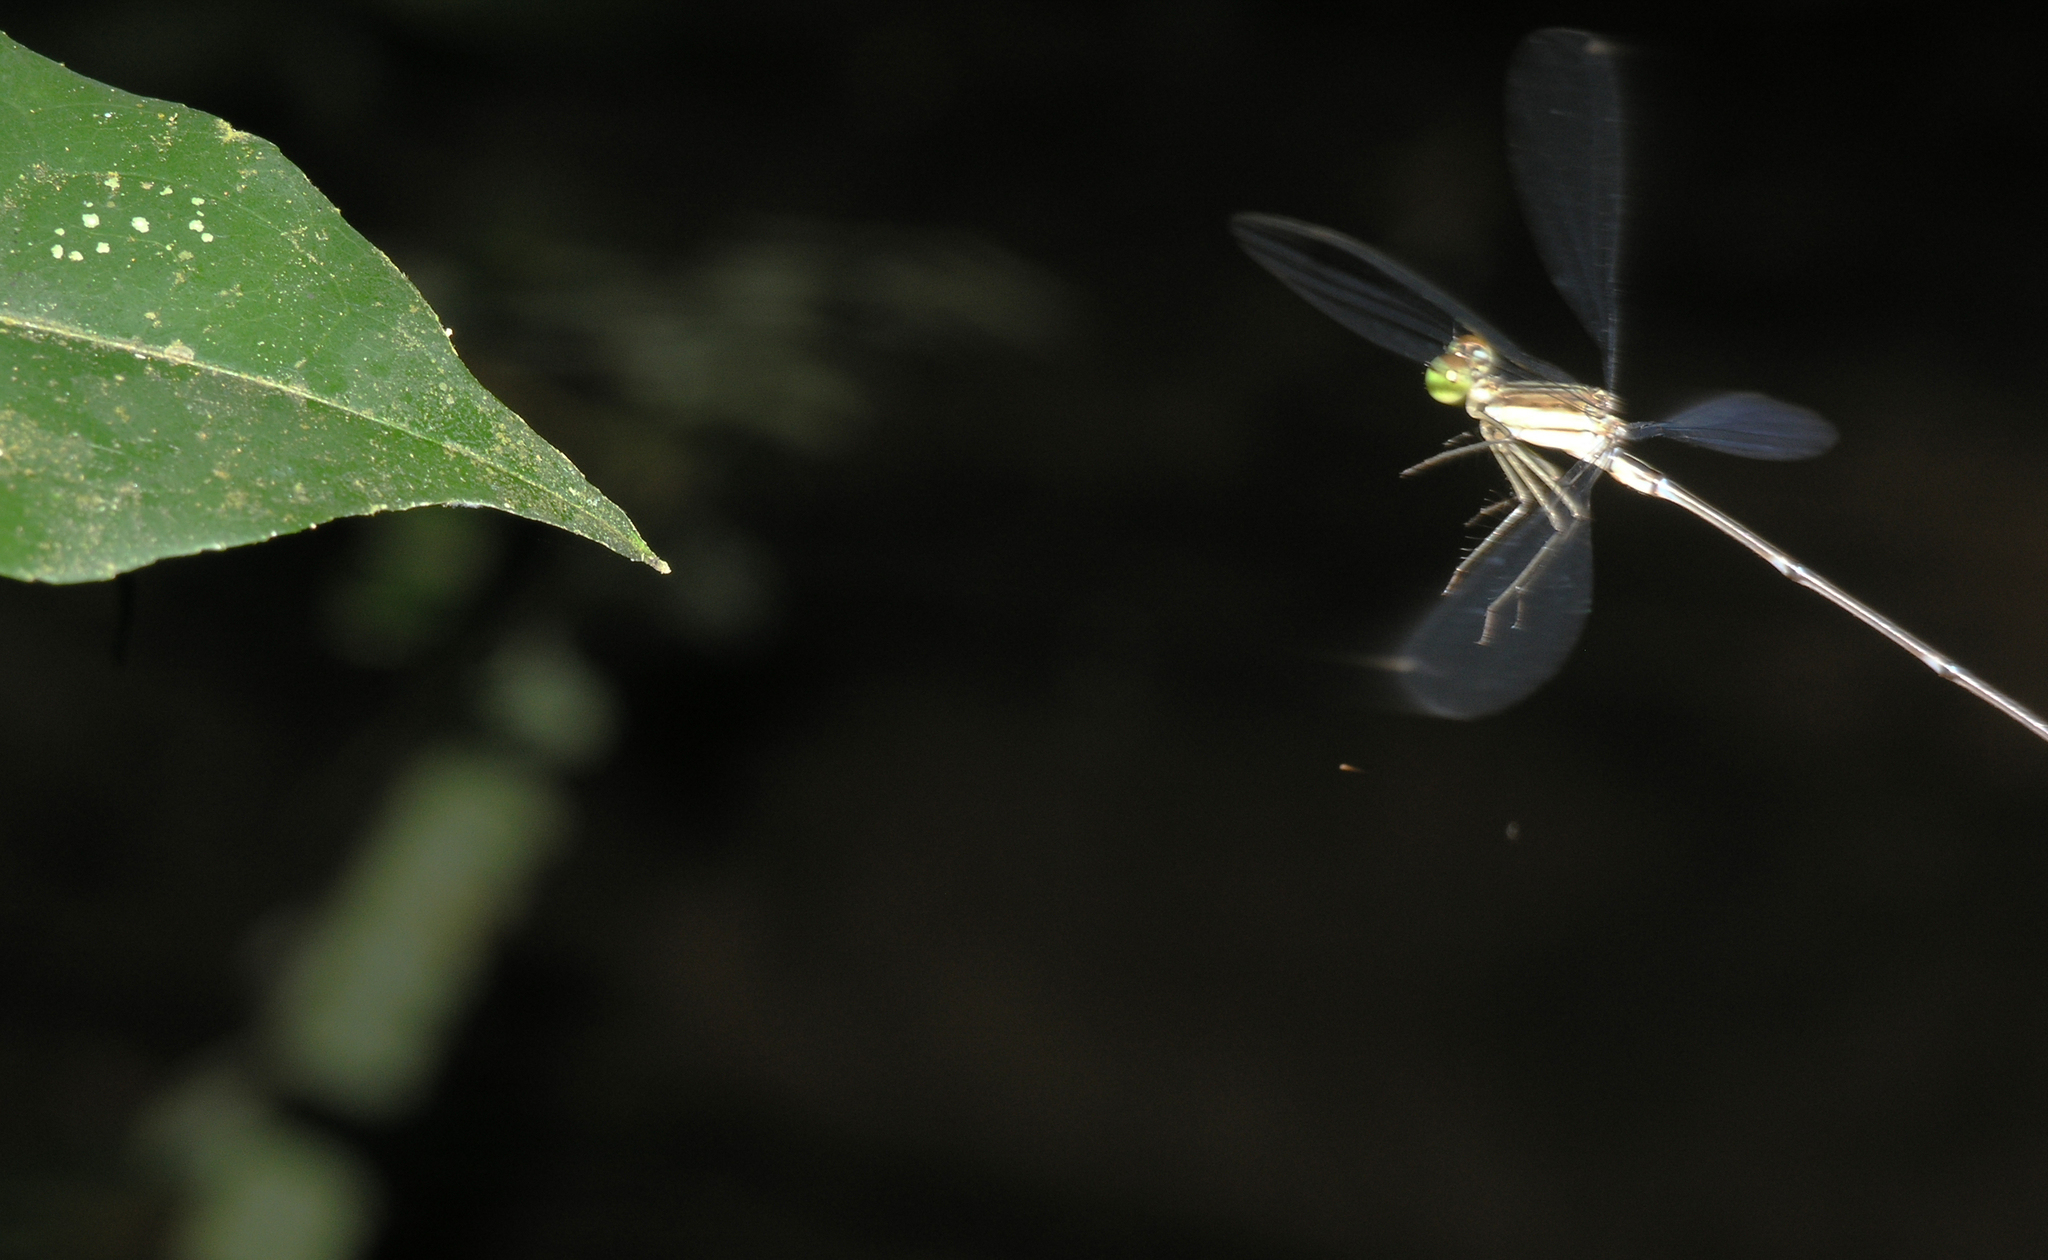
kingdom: Animalia
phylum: Arthropoda
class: Insecta
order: Odonata
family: Platycnemididae
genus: Coeliccia
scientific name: Coeliccia kazukoae
